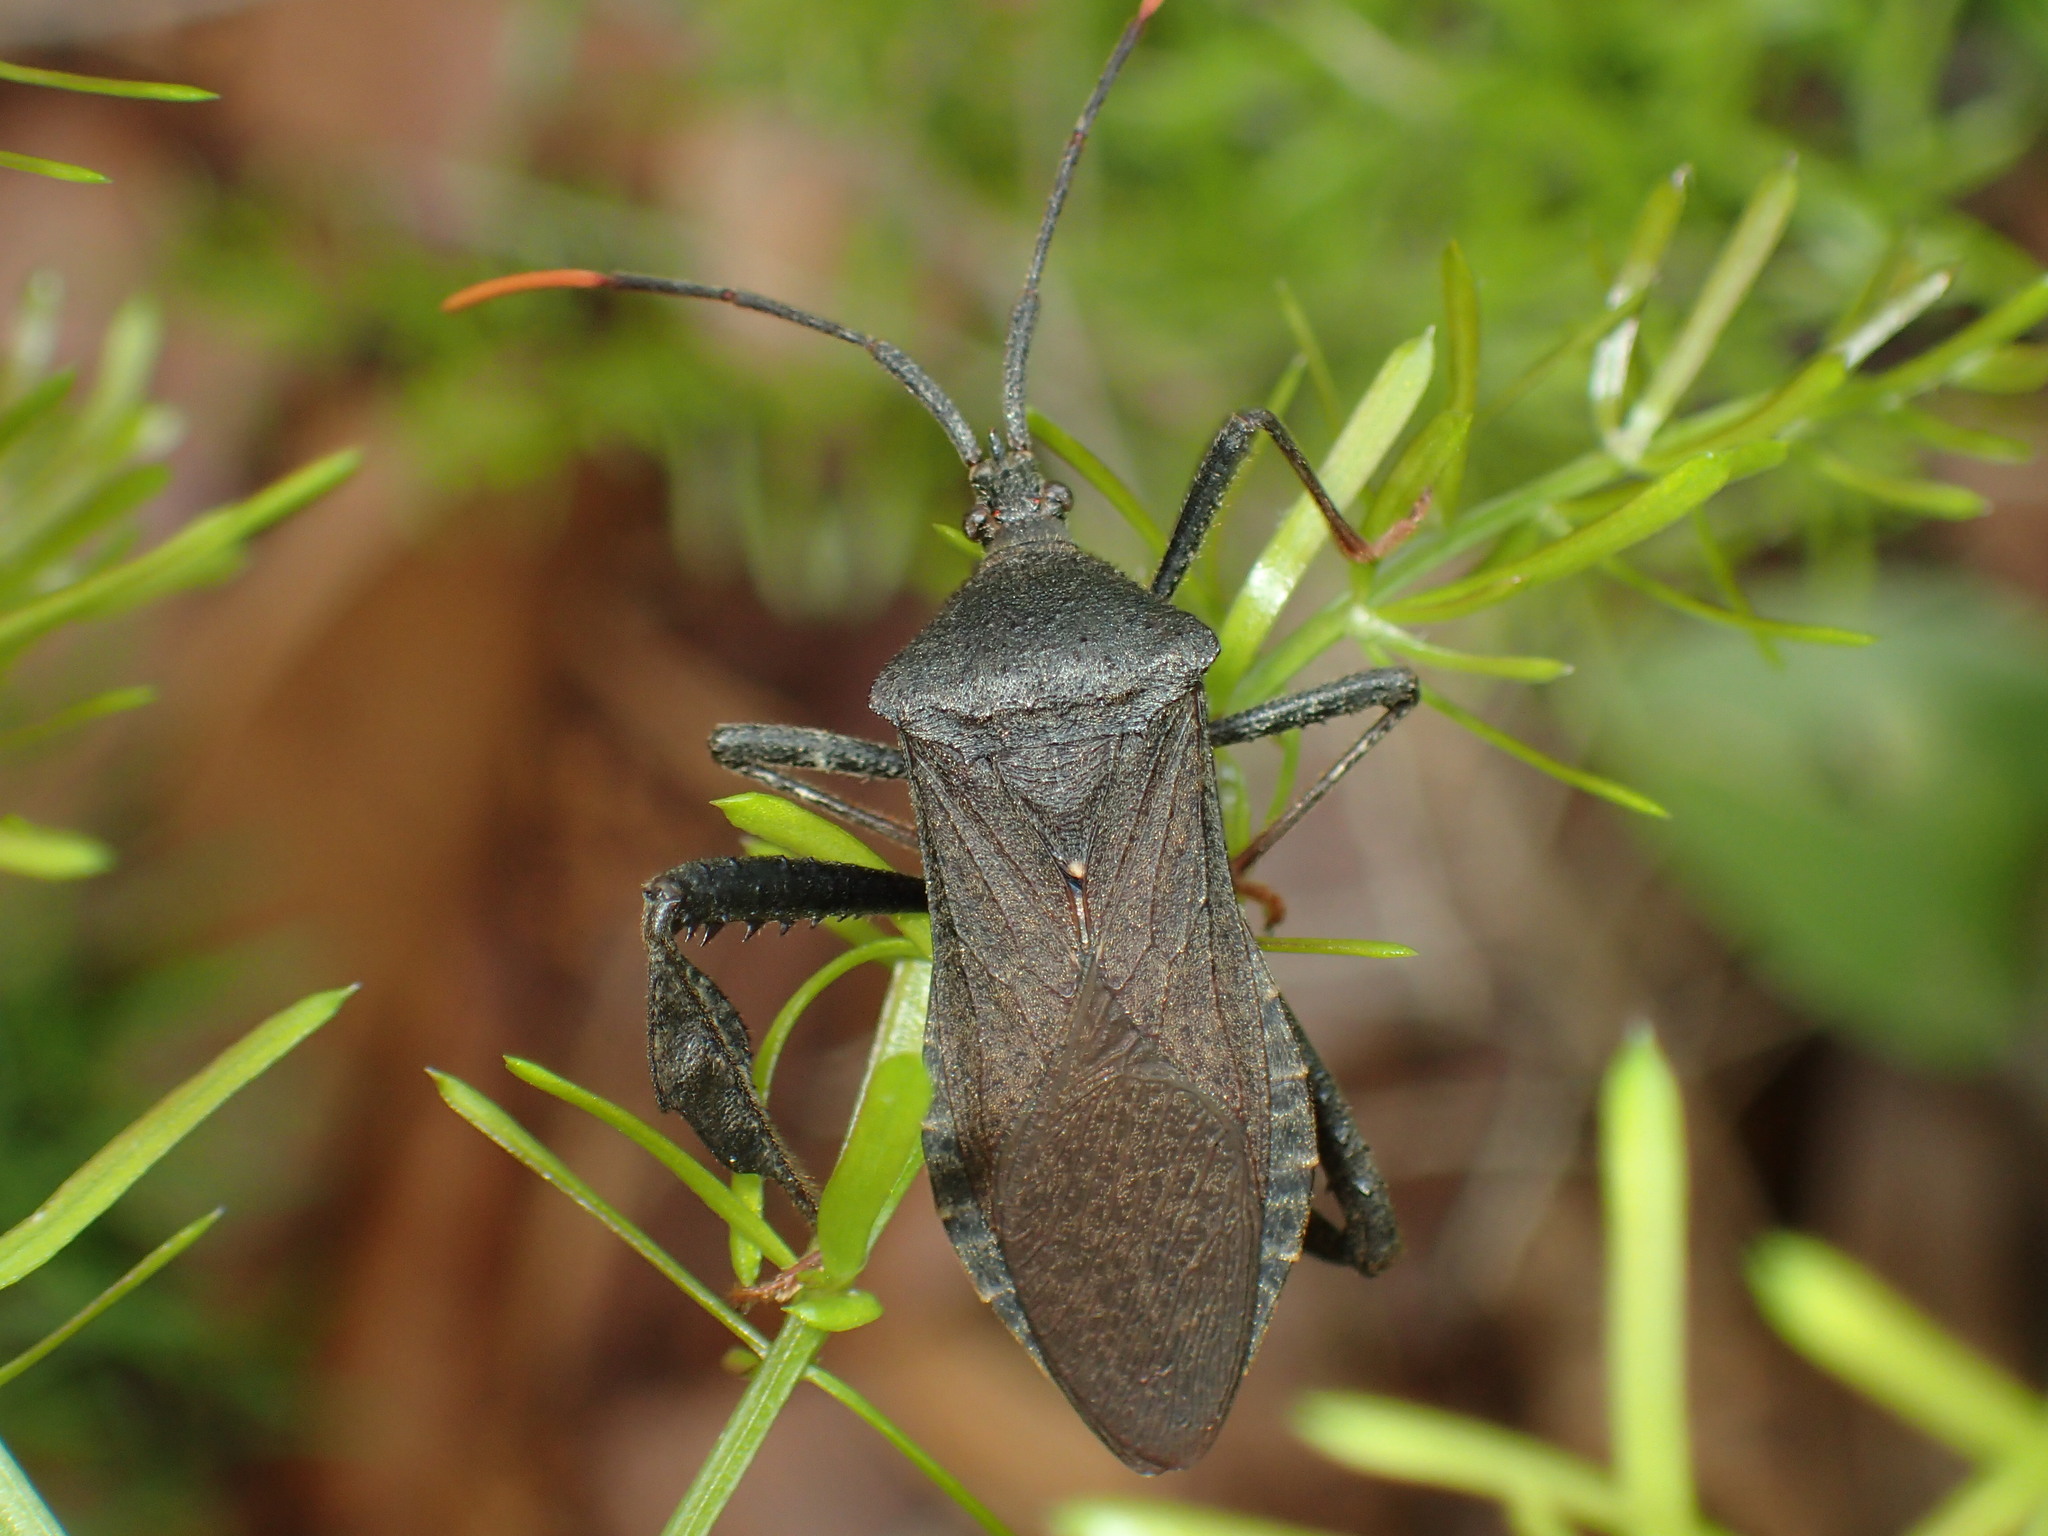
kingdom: Animalia
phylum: Arthropoda
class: Insecta
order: Hemiptera
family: Coreidae
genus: Acanthocephala
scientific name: Acanthocephala terminalis
